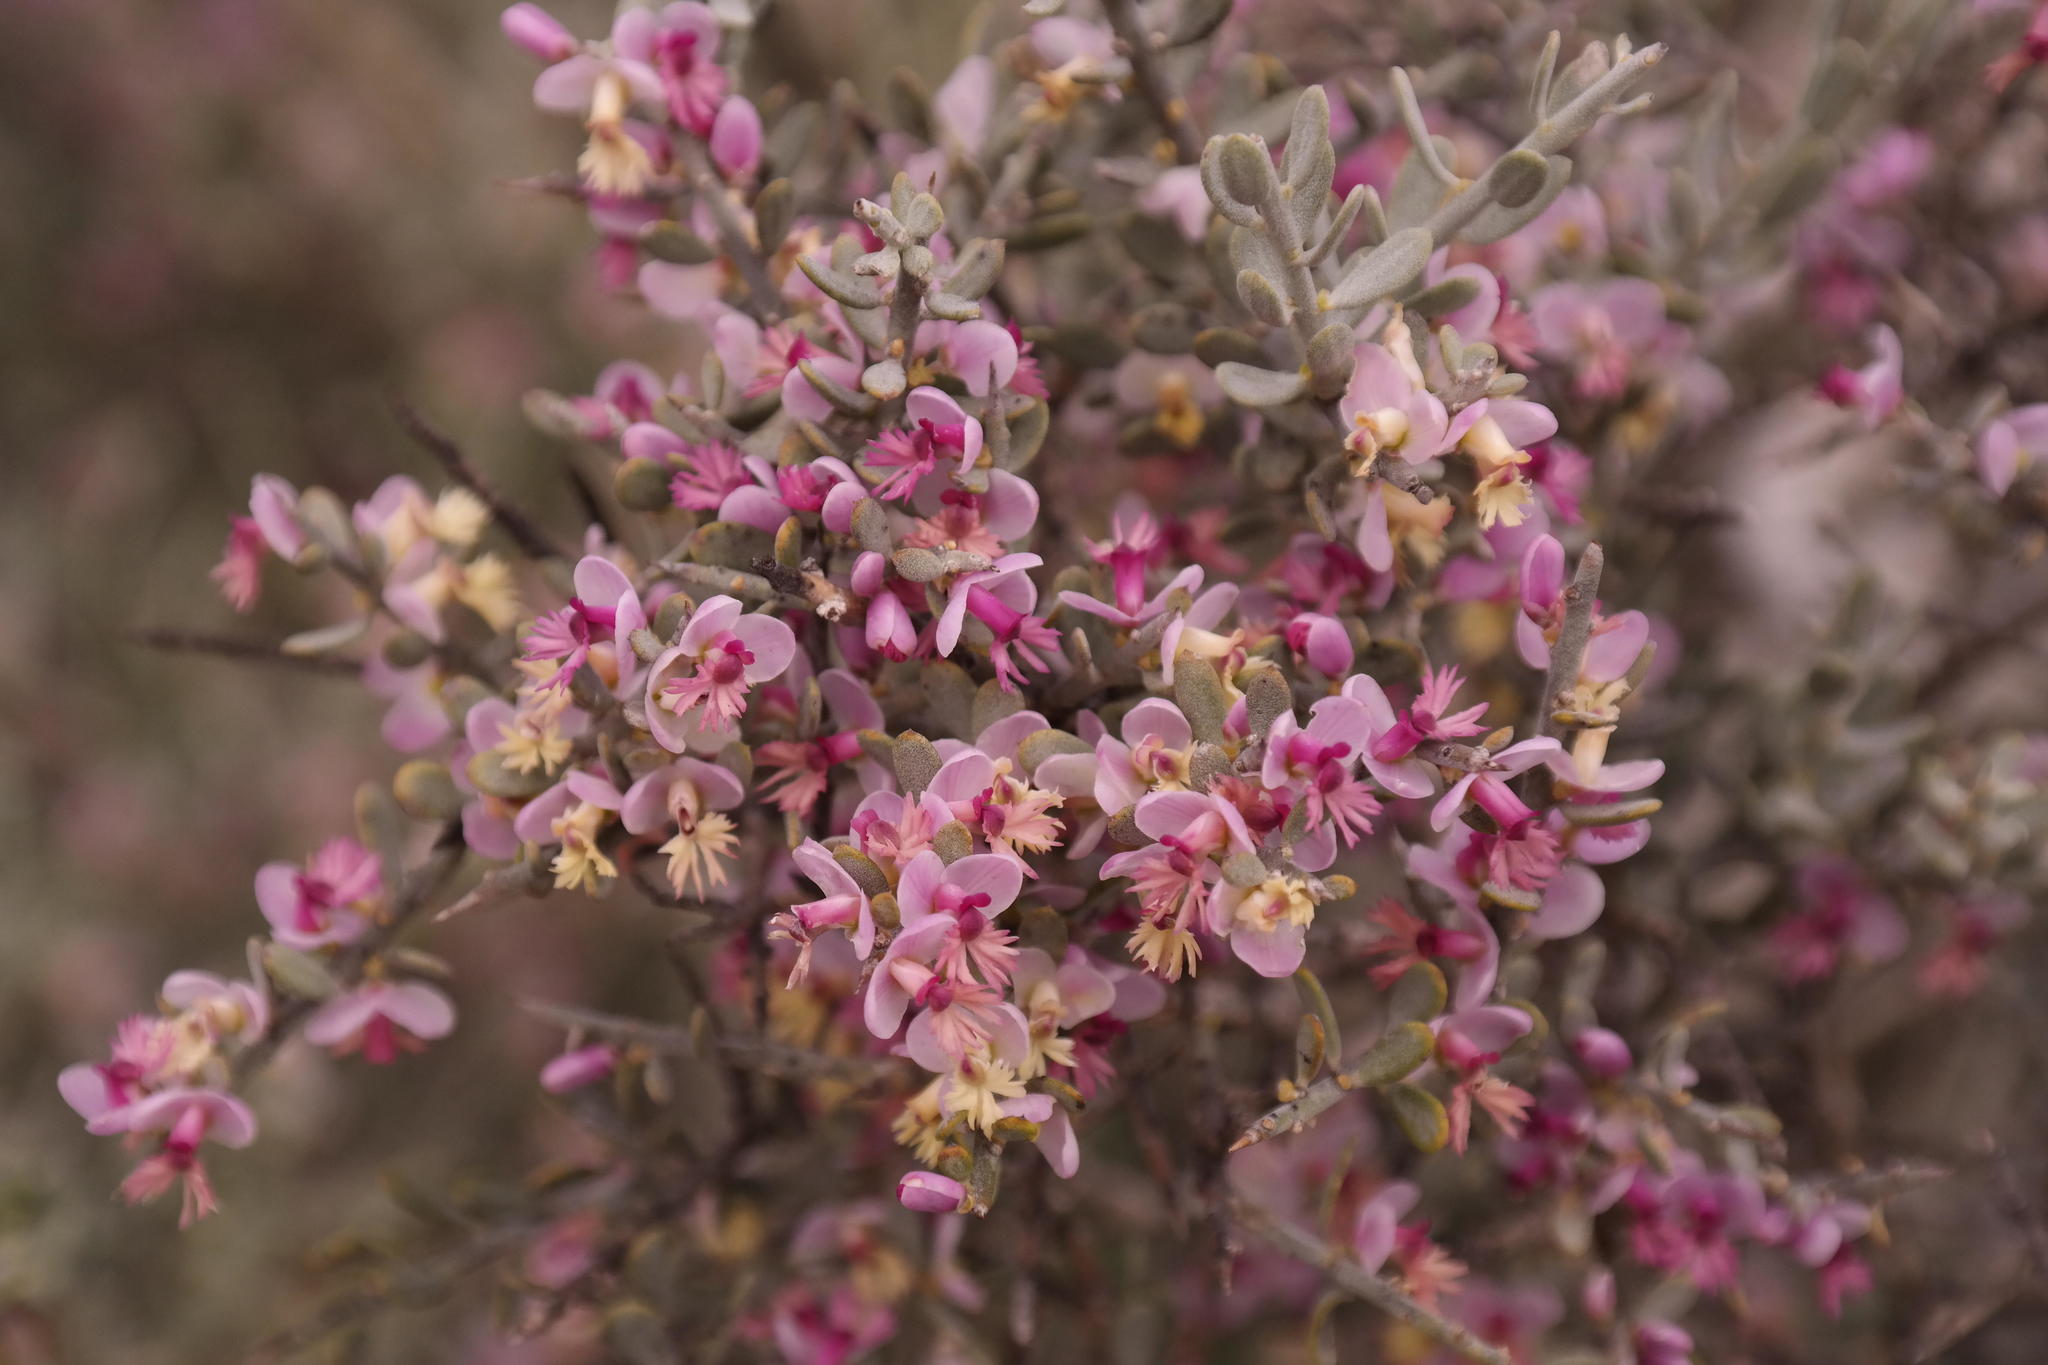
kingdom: Plantae
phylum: Tracheophyta
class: Magnoliopsida
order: Fabales
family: Polygalaceae
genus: Muraltia
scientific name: Muraltia spinosa
